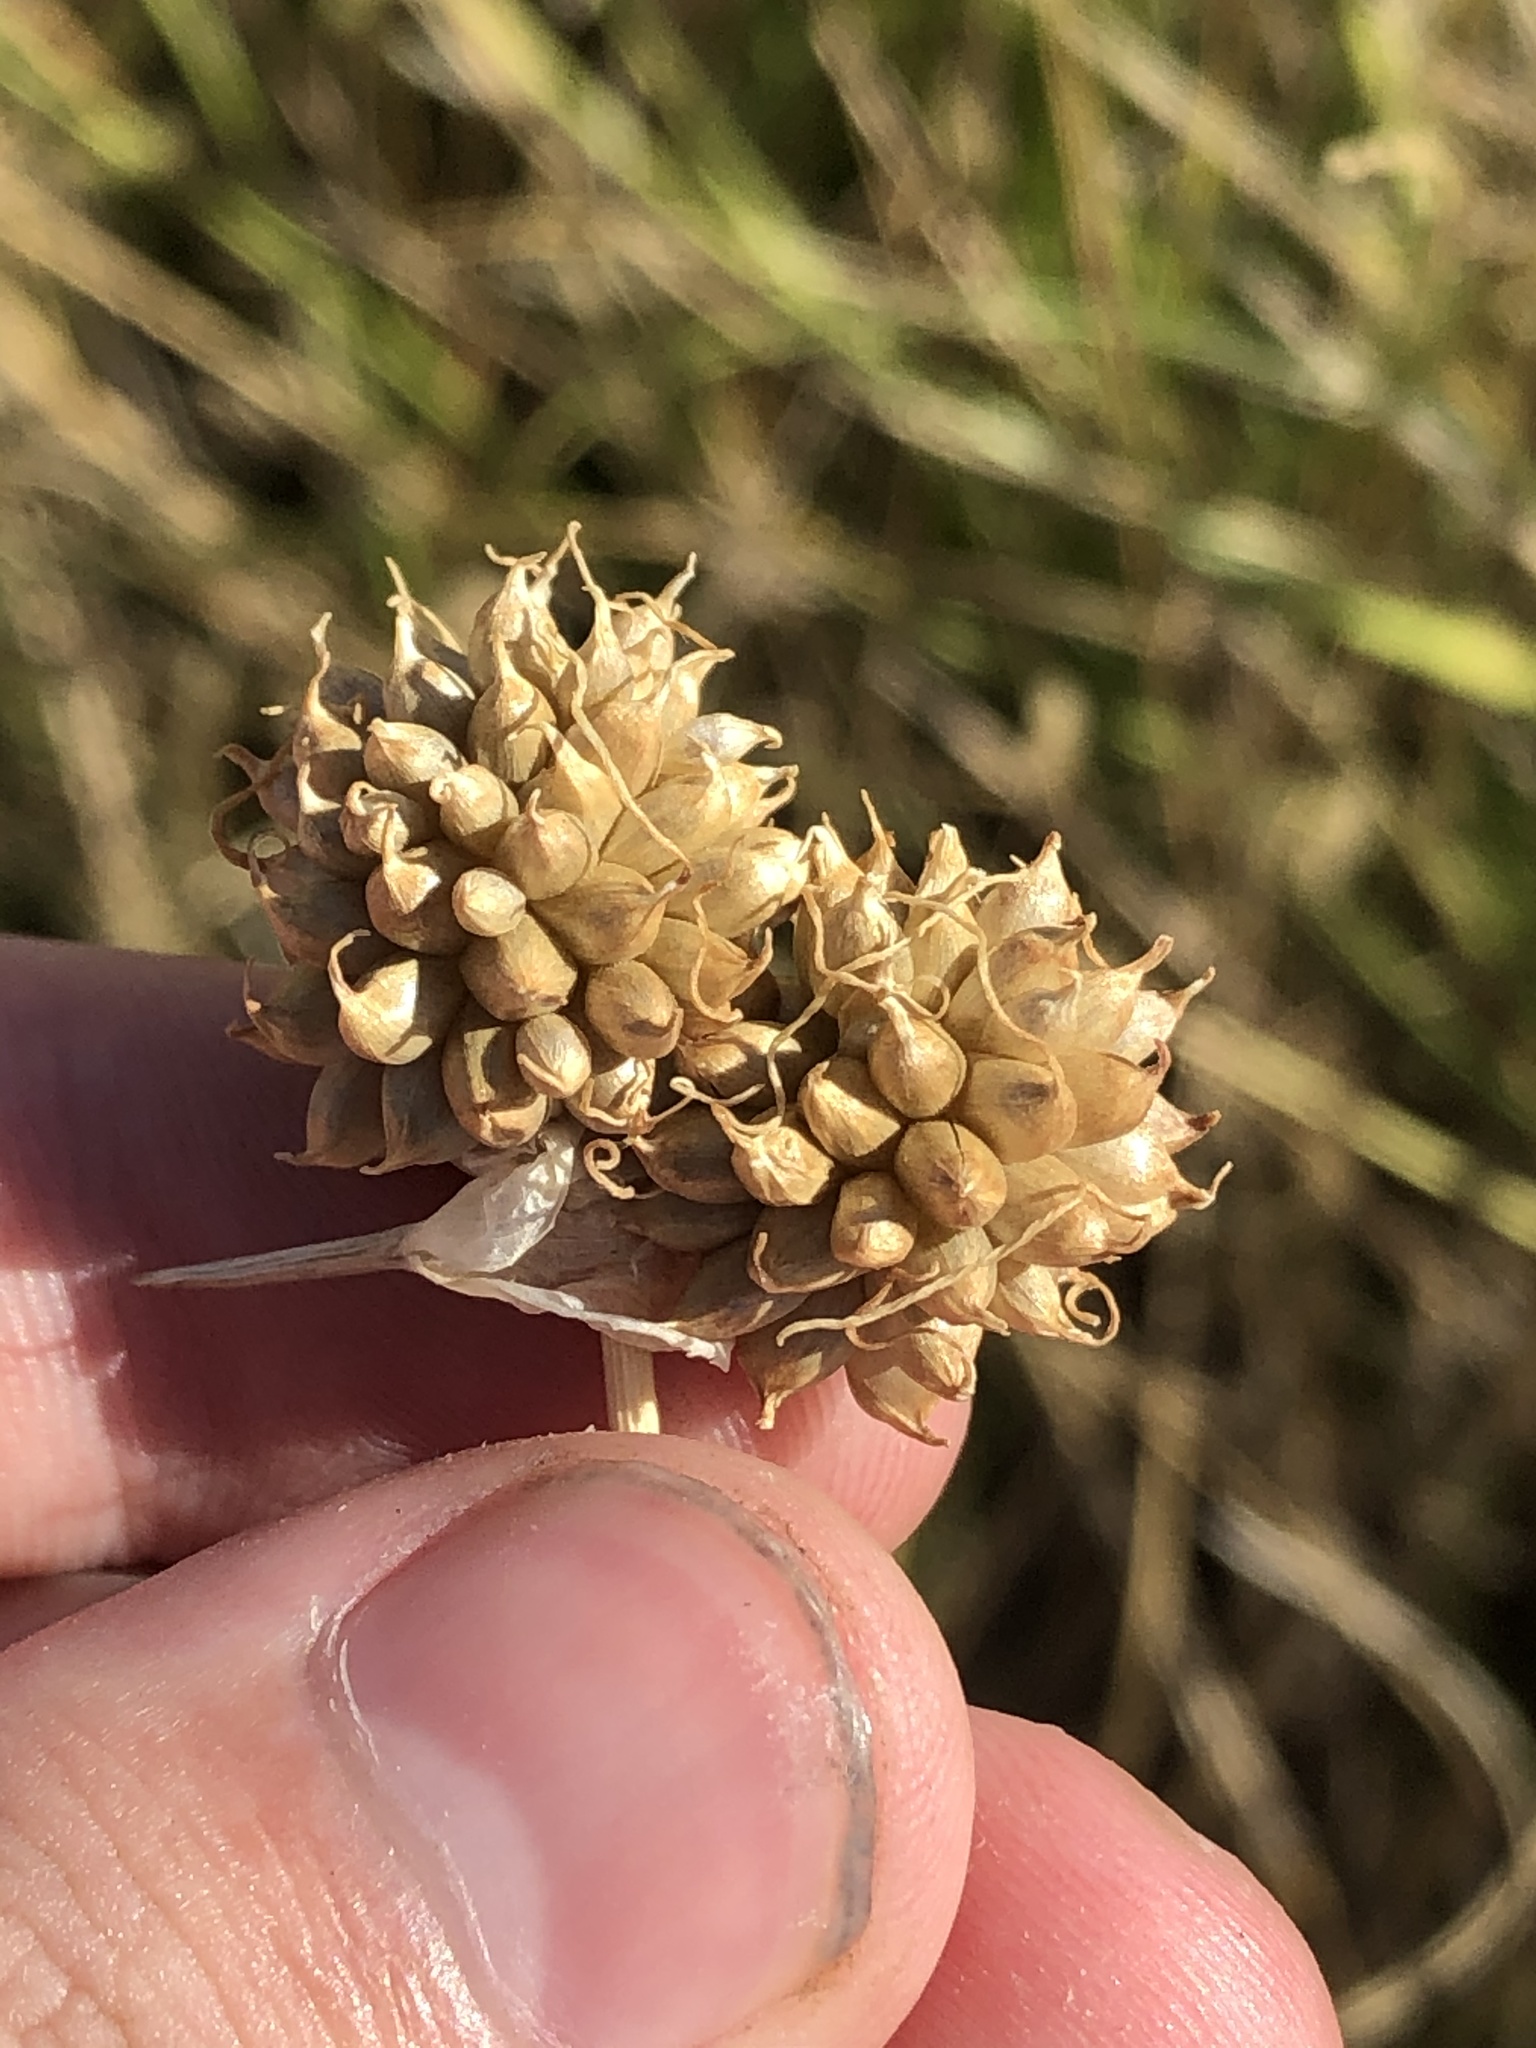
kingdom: Plantae
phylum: Tracheophyta
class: Liliopsida
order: Asparagales
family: Amaryllidaceae
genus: Allium
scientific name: Allium vineale
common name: Crow garlic
